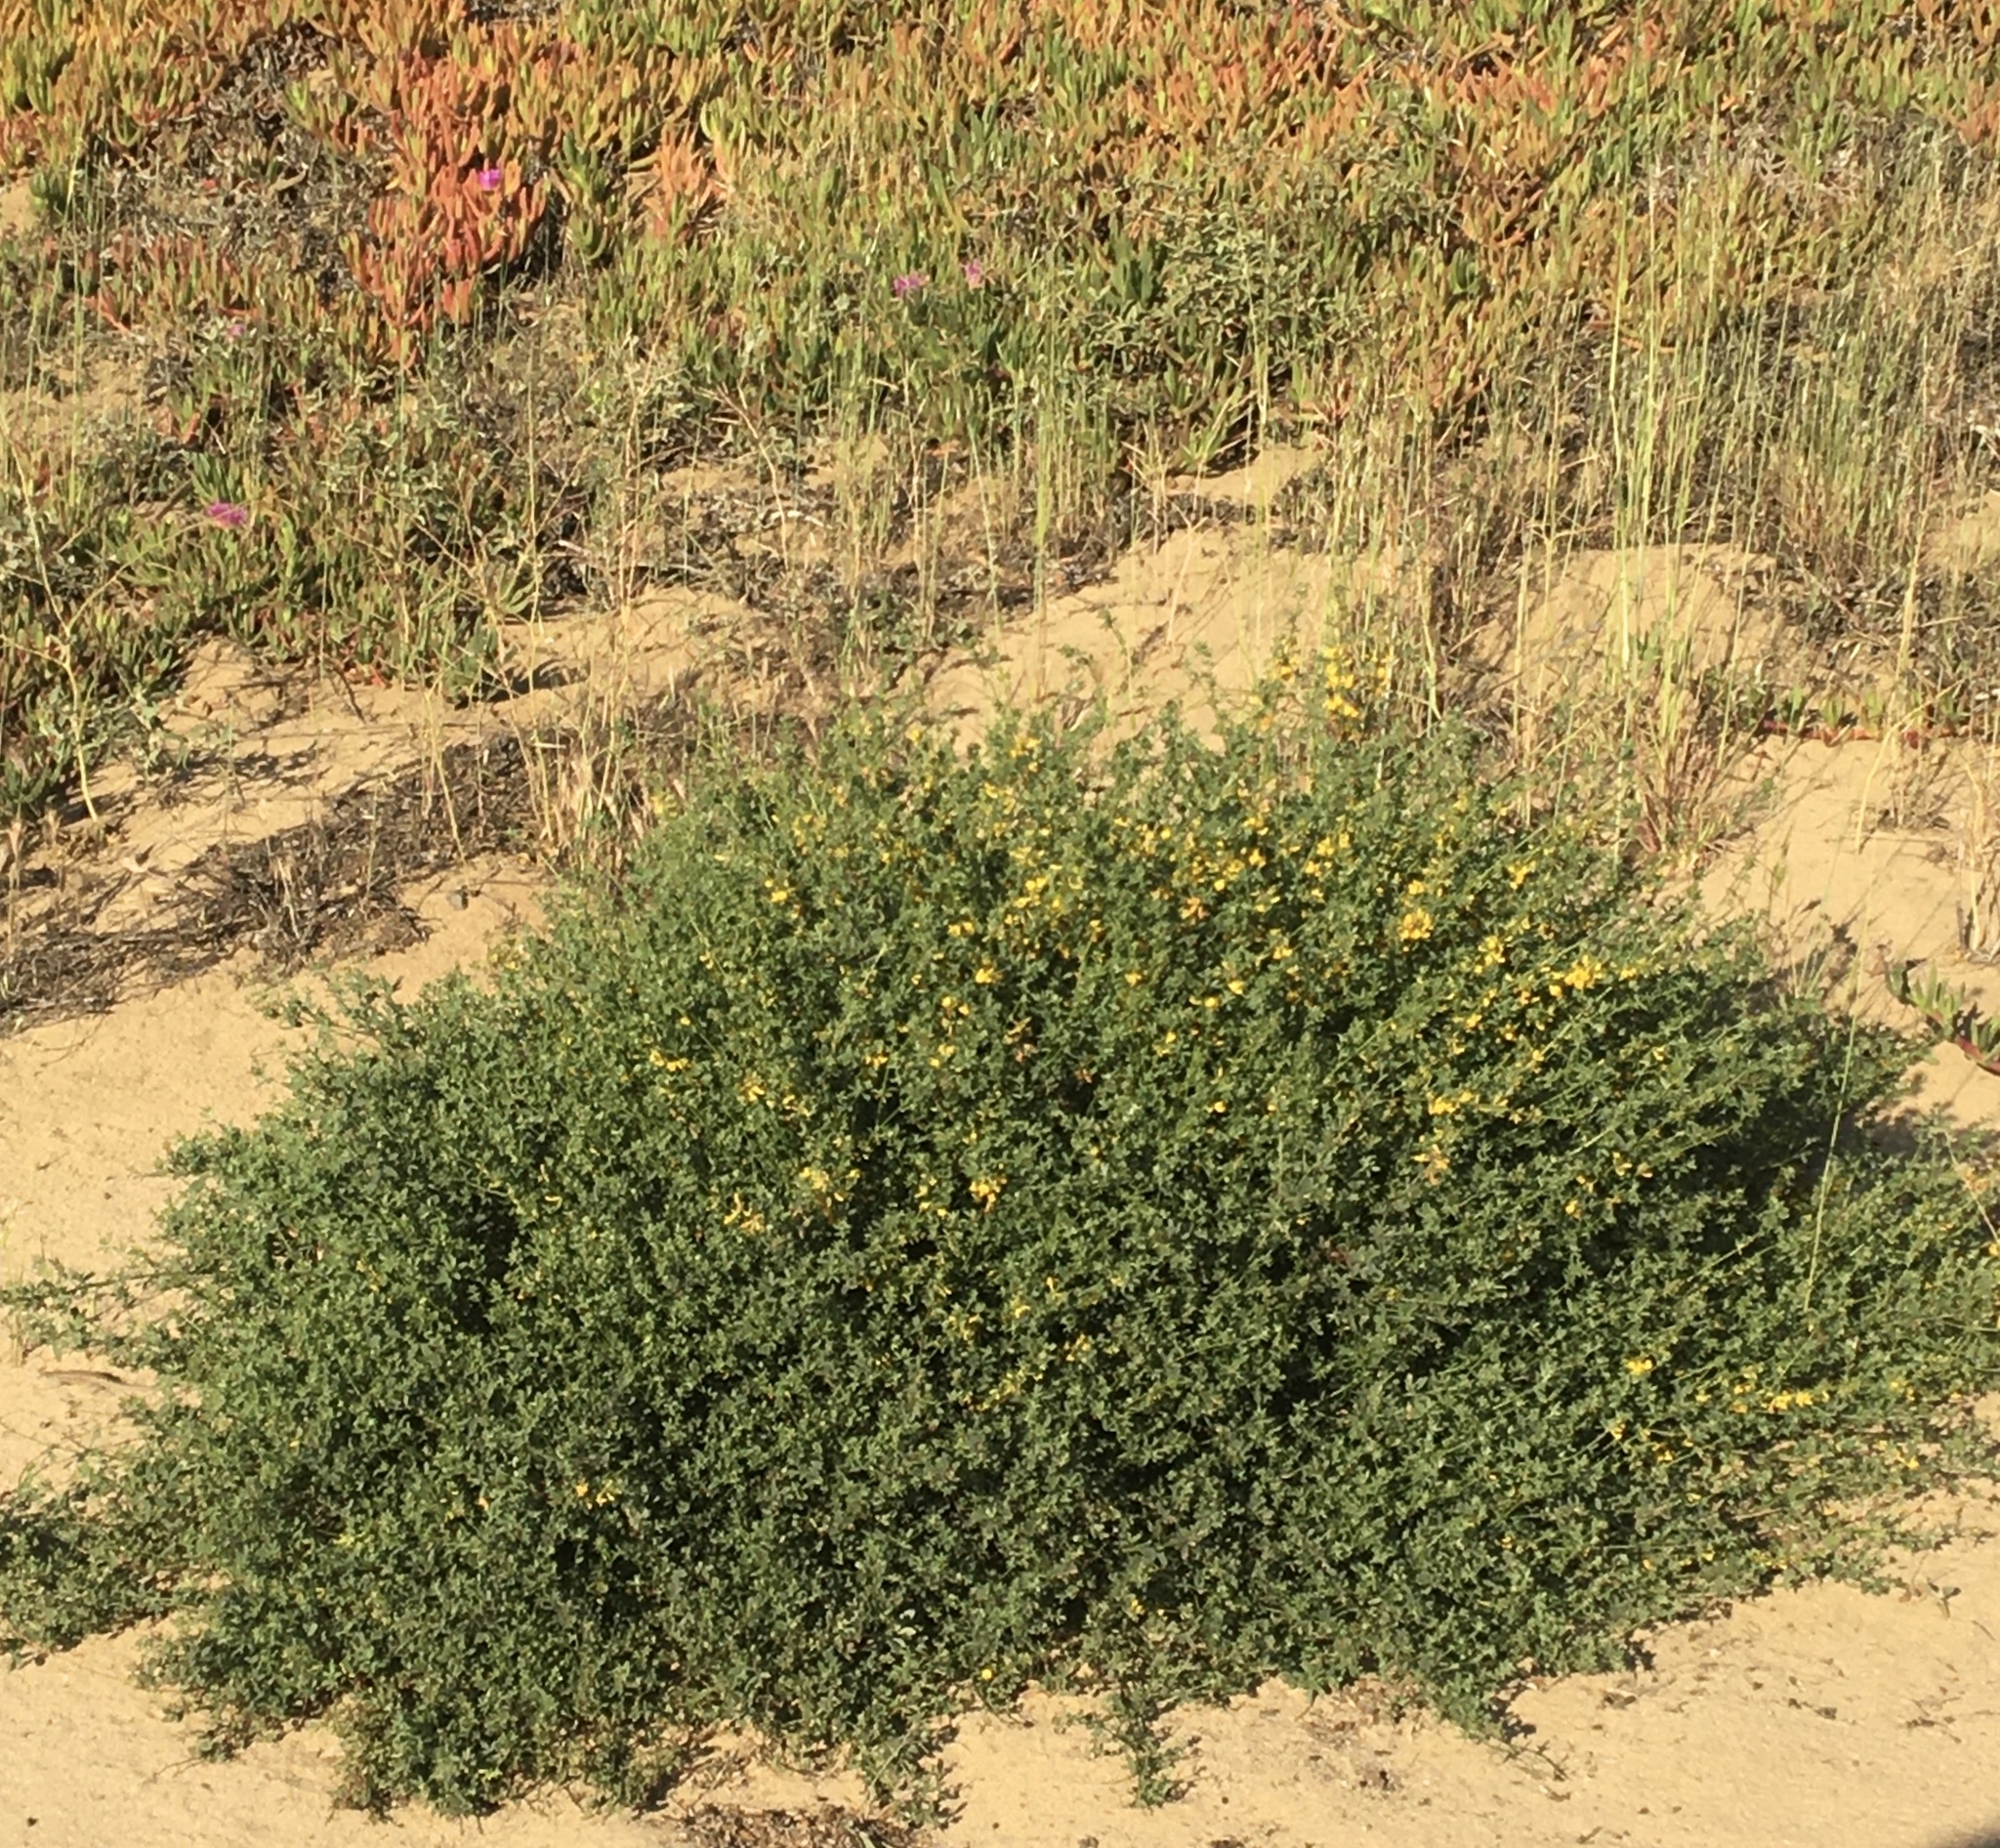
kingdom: Plantae
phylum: Tracheophyta
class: Magnoliopsida
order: Fabales
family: Fabaceae
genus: Acmispon
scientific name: Acmispon glaber
